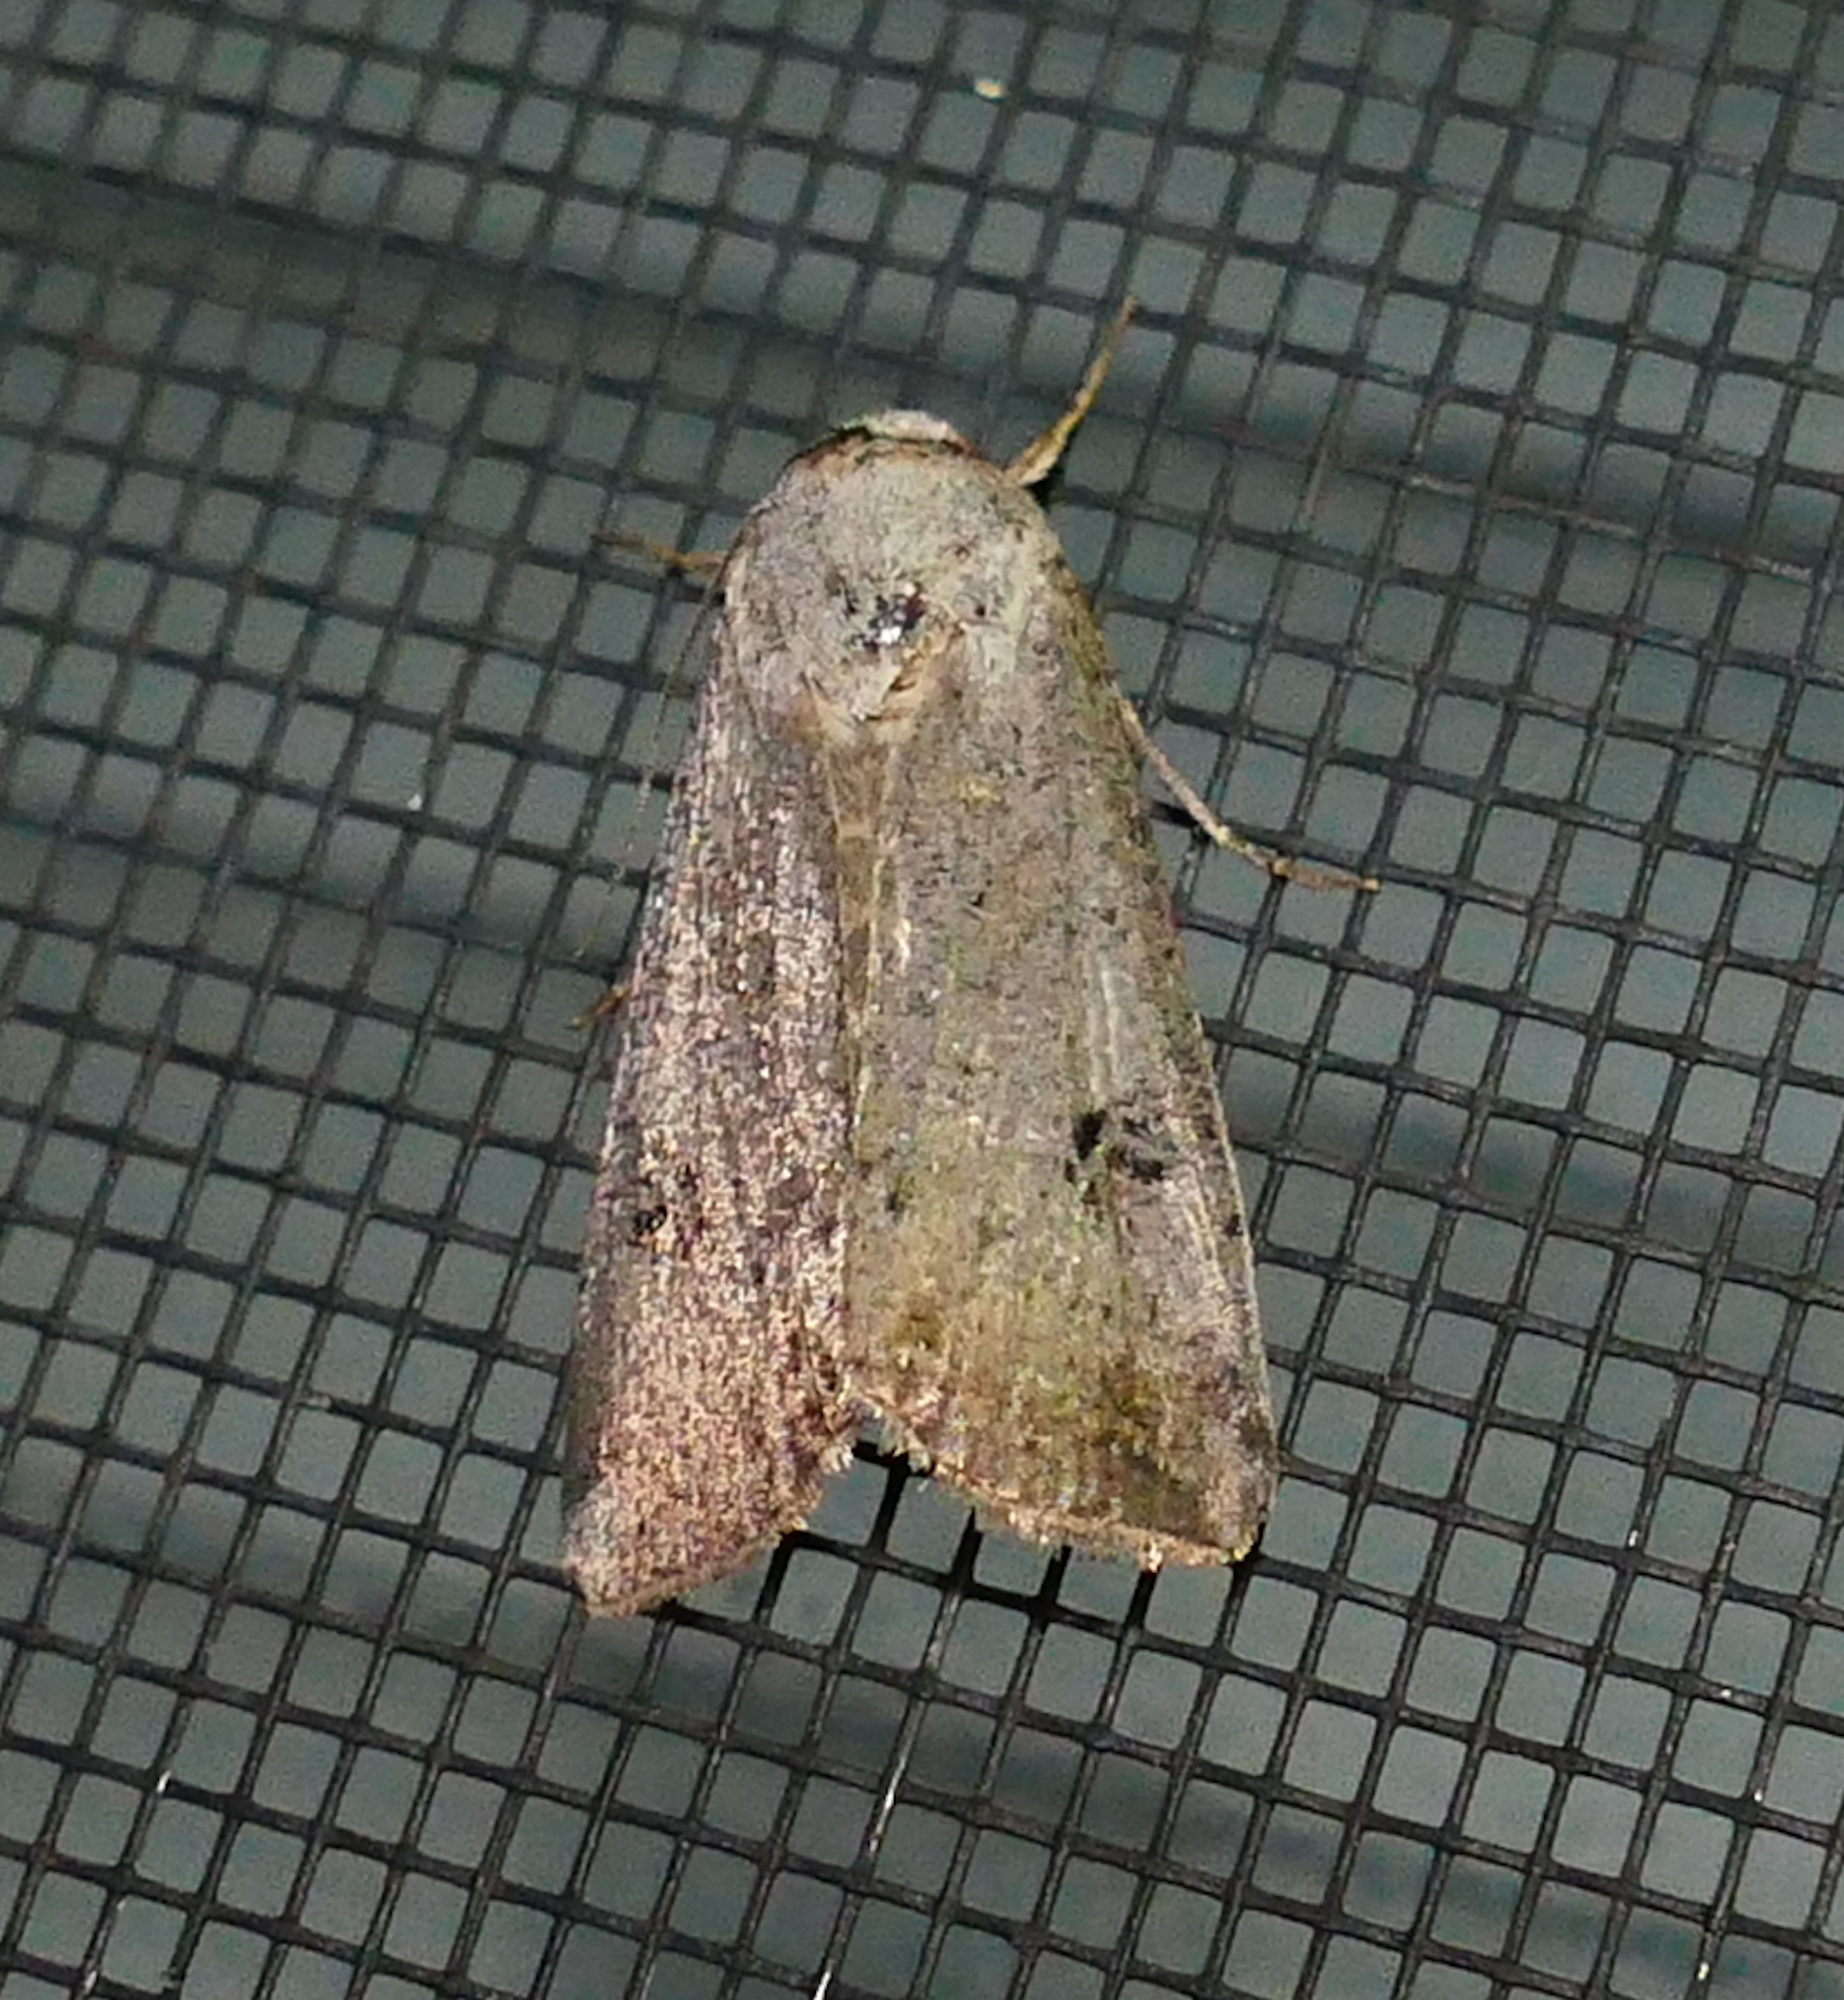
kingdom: Animalia
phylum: Arthropoda
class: Insecta
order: Lepidoptera
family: Noctuidae
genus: Anicla
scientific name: Anicla infecta
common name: Green cutworm
